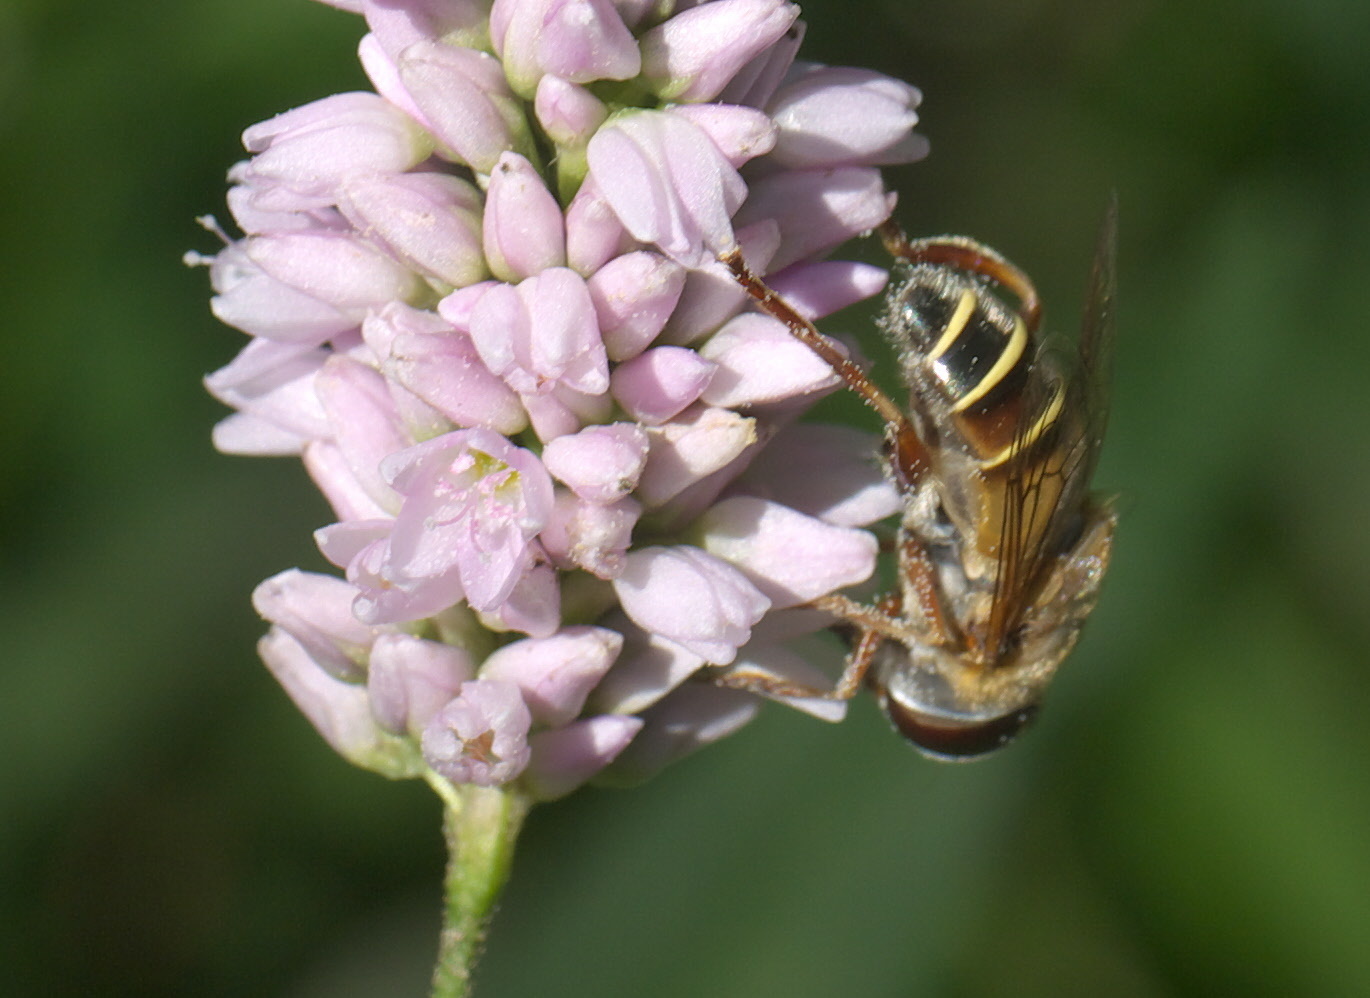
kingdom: Animalia
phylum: Arthropoda
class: Insecta
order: Diptera
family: Syrphidae
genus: Palpada
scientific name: Palpada vinetorum
